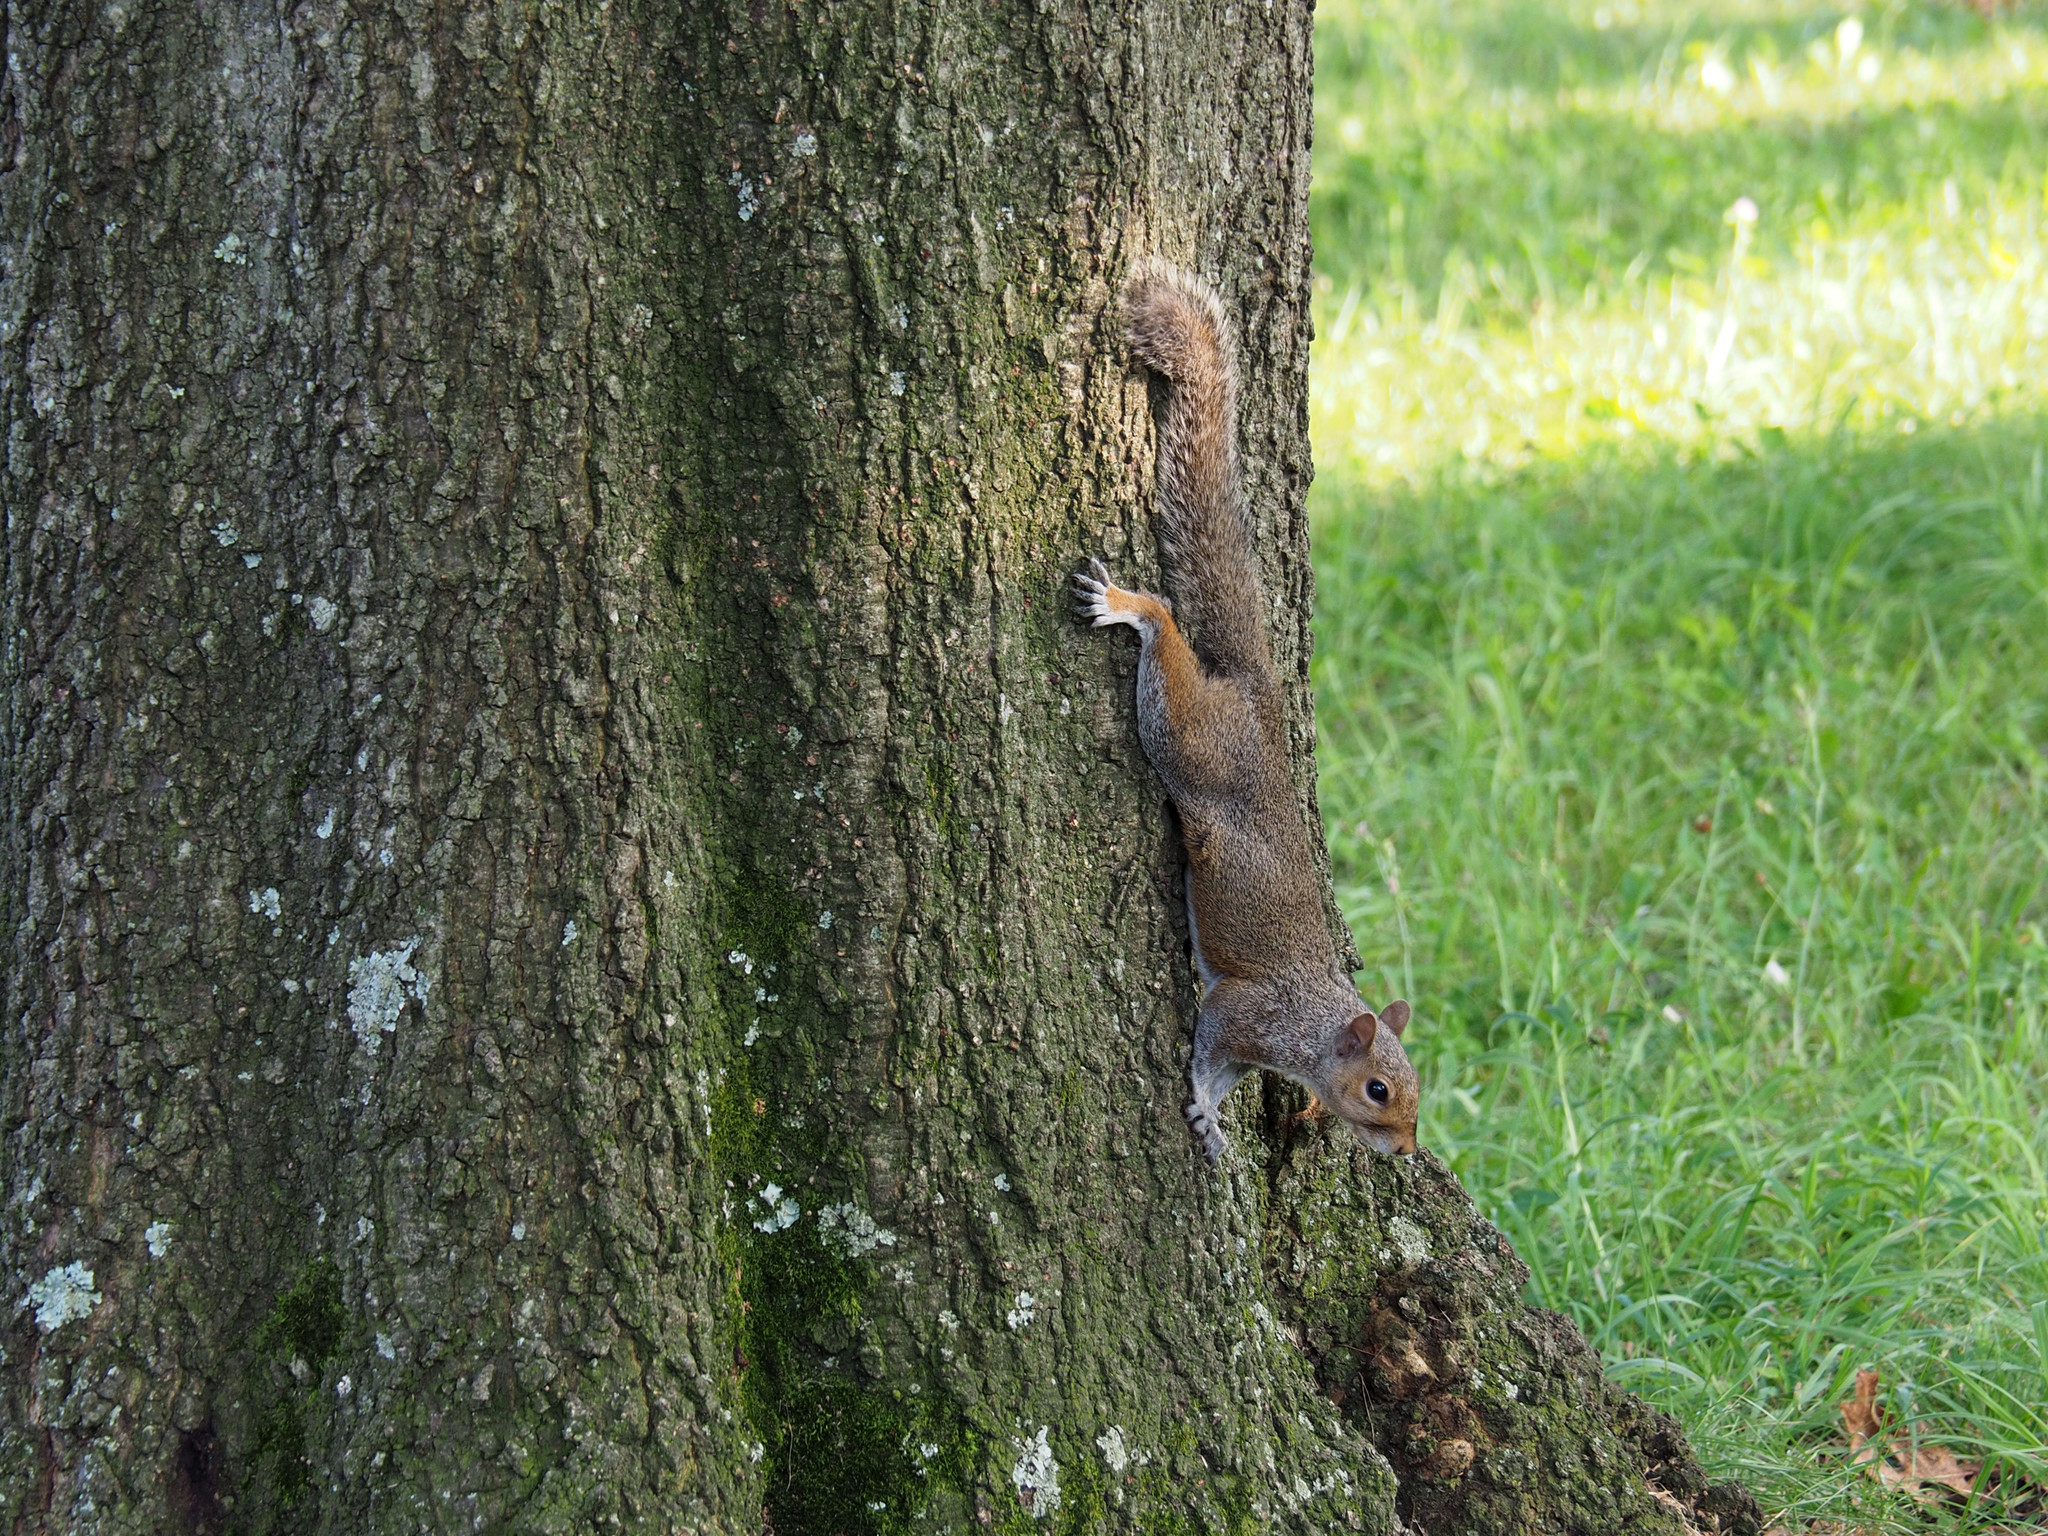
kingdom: Animalia
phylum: Chordata
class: Mammalia
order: Rodentia
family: Sciuridae
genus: Sciurus
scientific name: Sciurus carolinensis
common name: Eastern gray squirrel
